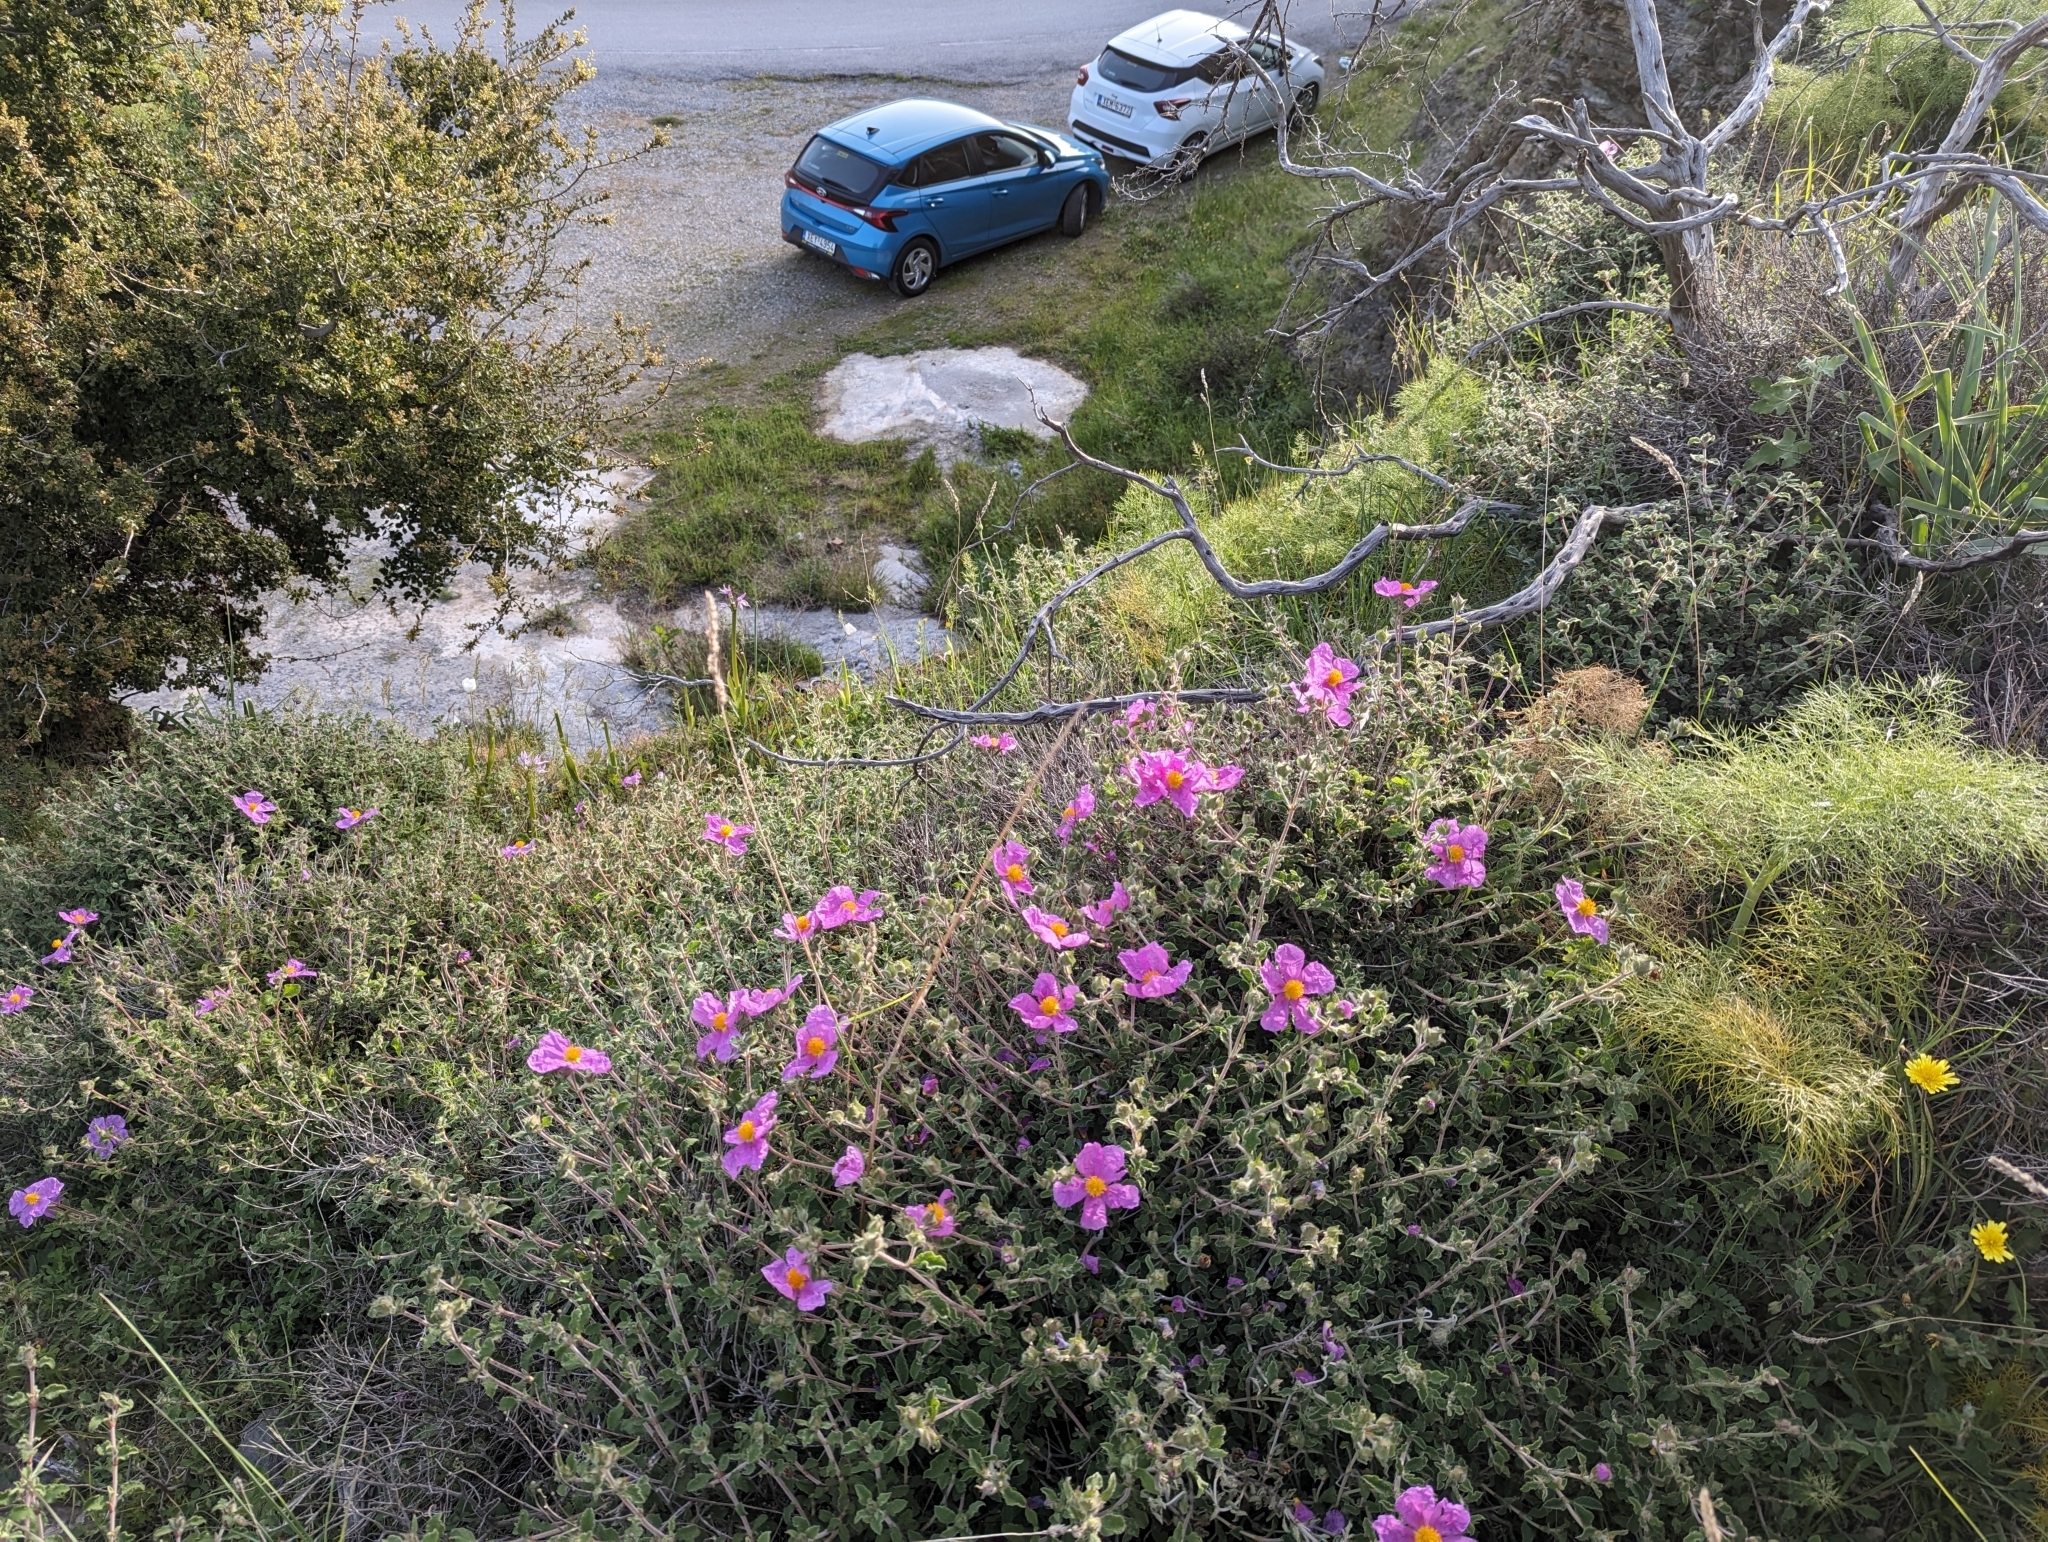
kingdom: Plantae
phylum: Tracheophyta
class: Magnoliopsida
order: Malvales
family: Cistaceae
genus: Cistus
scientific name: Cistus creticus
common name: Cretan rockrose
